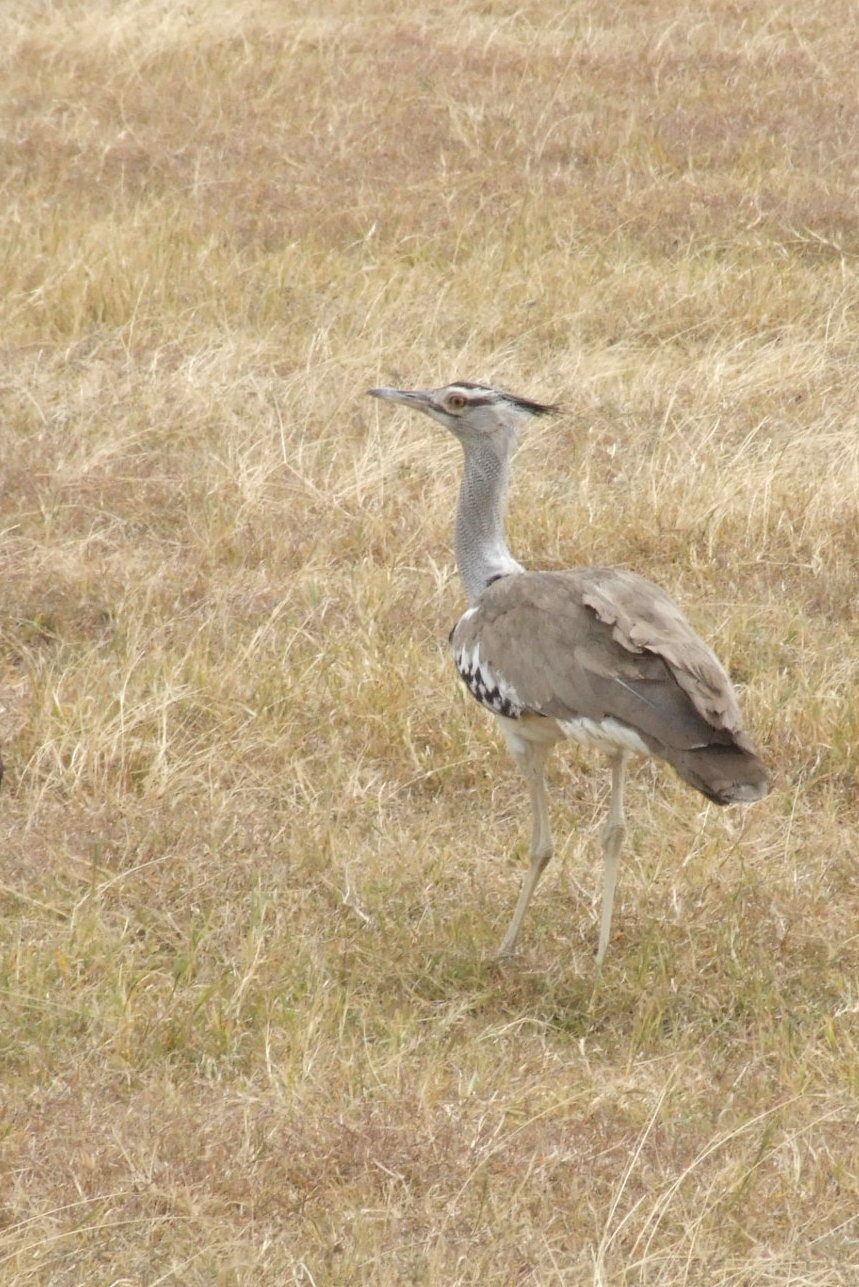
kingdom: Animalia
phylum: Chordata
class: Aves
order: Otidiformes
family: Otididae
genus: Ardeotis
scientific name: Ardeotis kori
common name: Kori bustard
